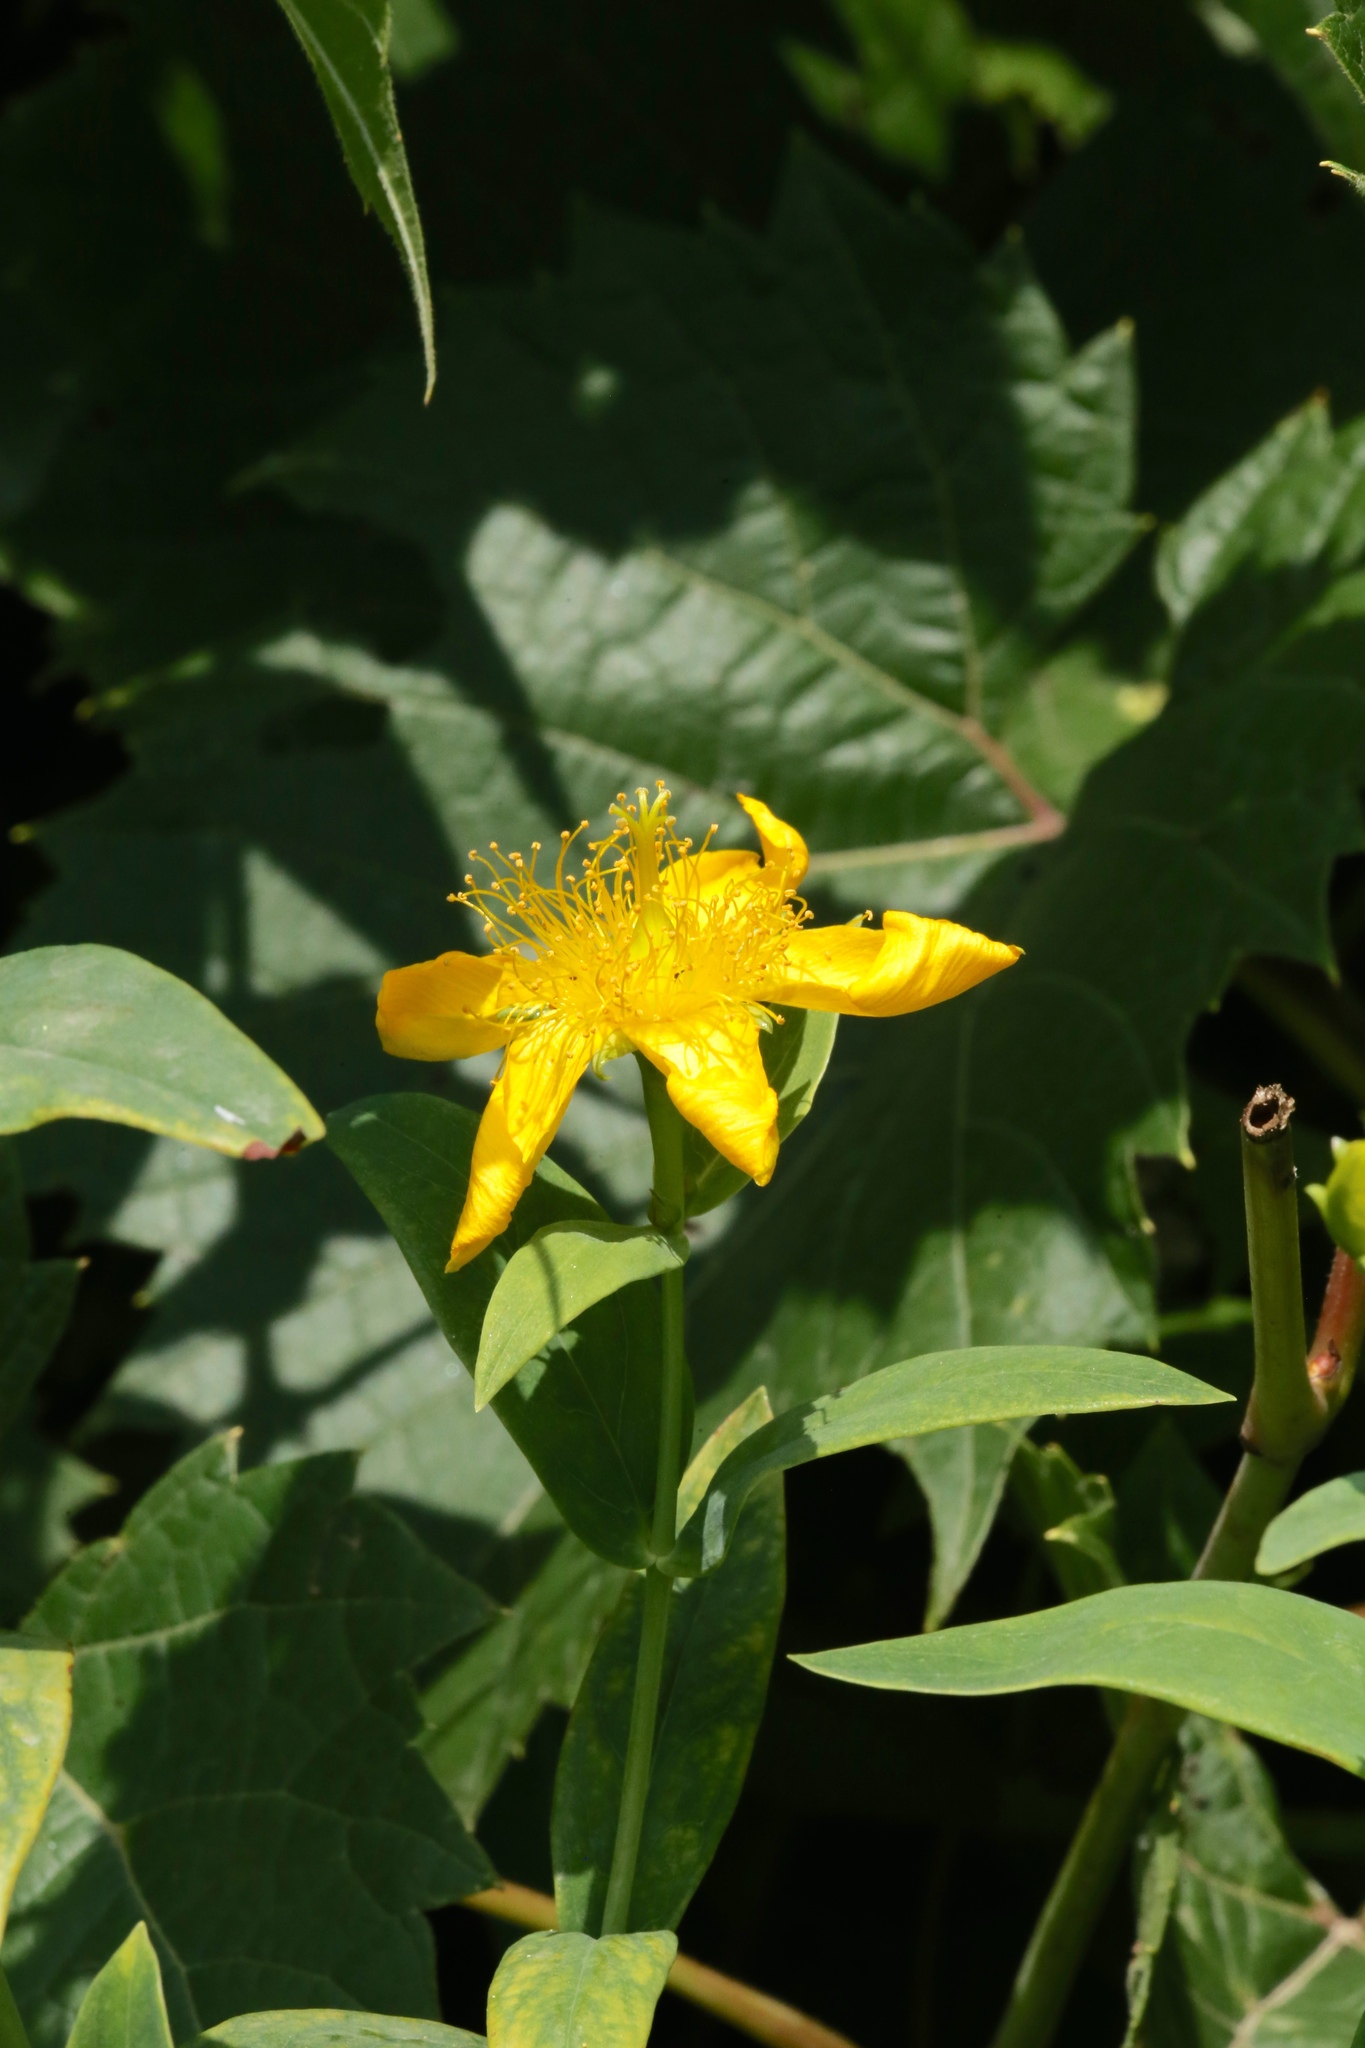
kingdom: Plantae
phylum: Tracheophyta
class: Magnoliopsida
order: Malpighiales
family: Hypericaceae
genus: Hypericum
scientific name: Hypericum ascyron
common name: Giant st. john's-wort
